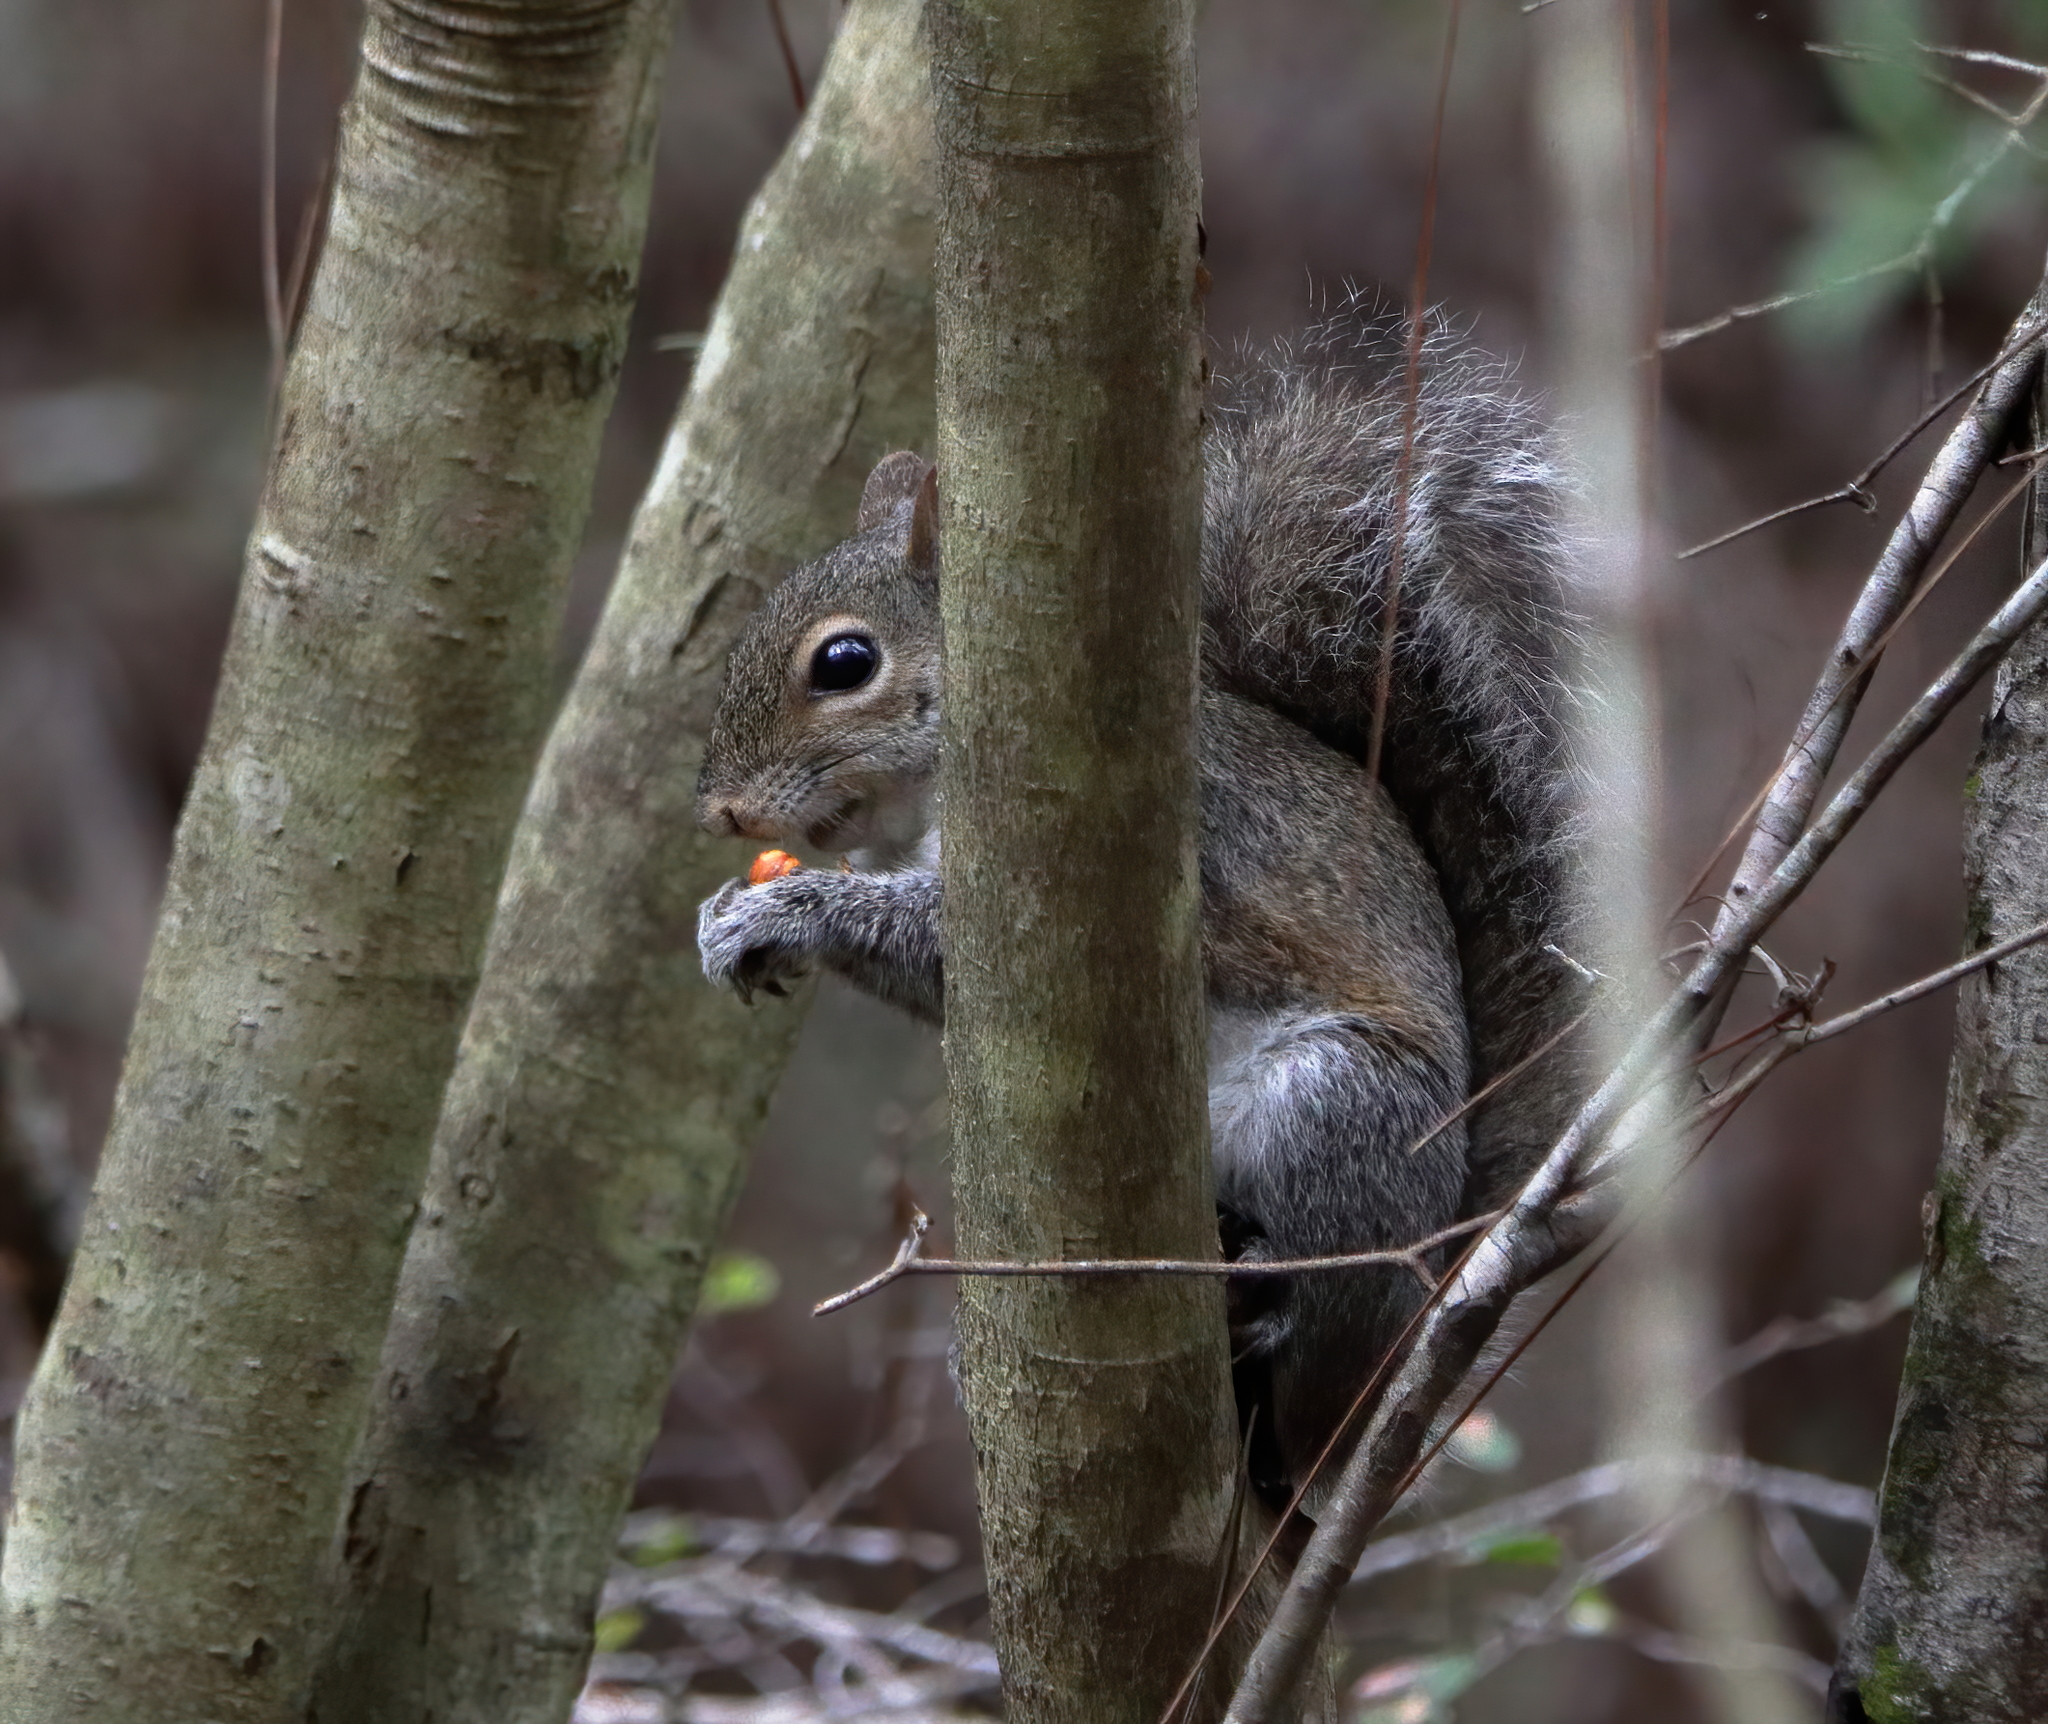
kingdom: Animalia
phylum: Chordata
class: Mammalia
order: Rodentia
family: Sciuridae
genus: Sciurus
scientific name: Sciurus carolinensis
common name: Eastern gray squirrel
